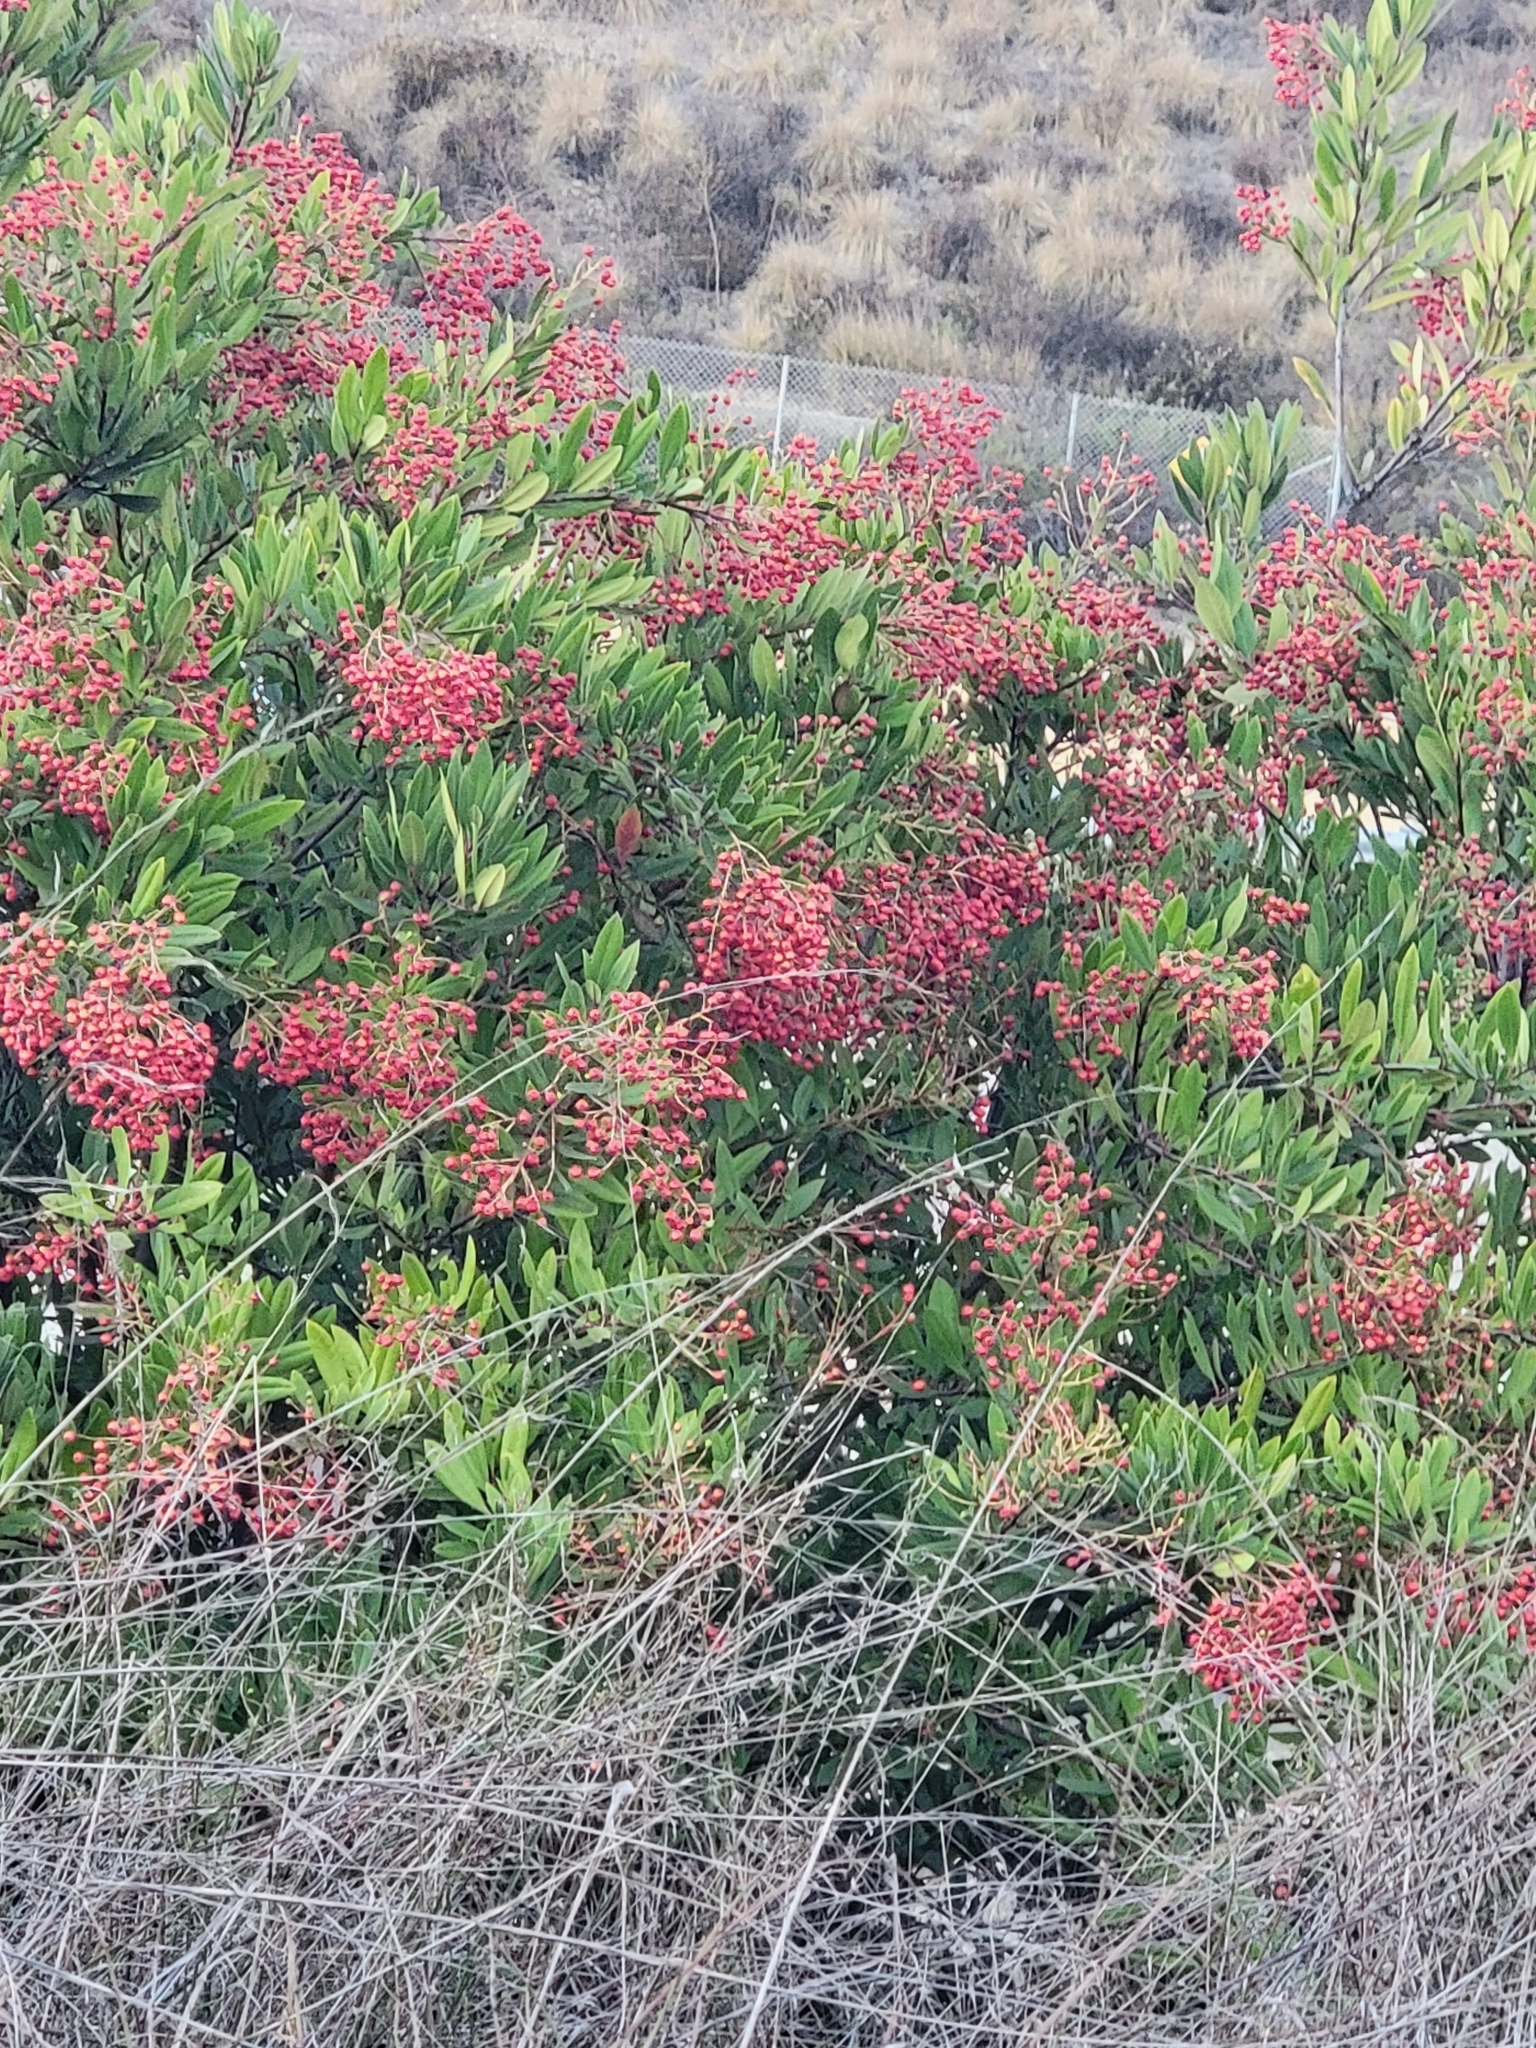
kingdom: Plantae
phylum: Tracheophyta
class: Magnoliopsida
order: Rosales
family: Rosaceae
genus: Heteromeles
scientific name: Heteromeles arbutifolia
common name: California-holly
